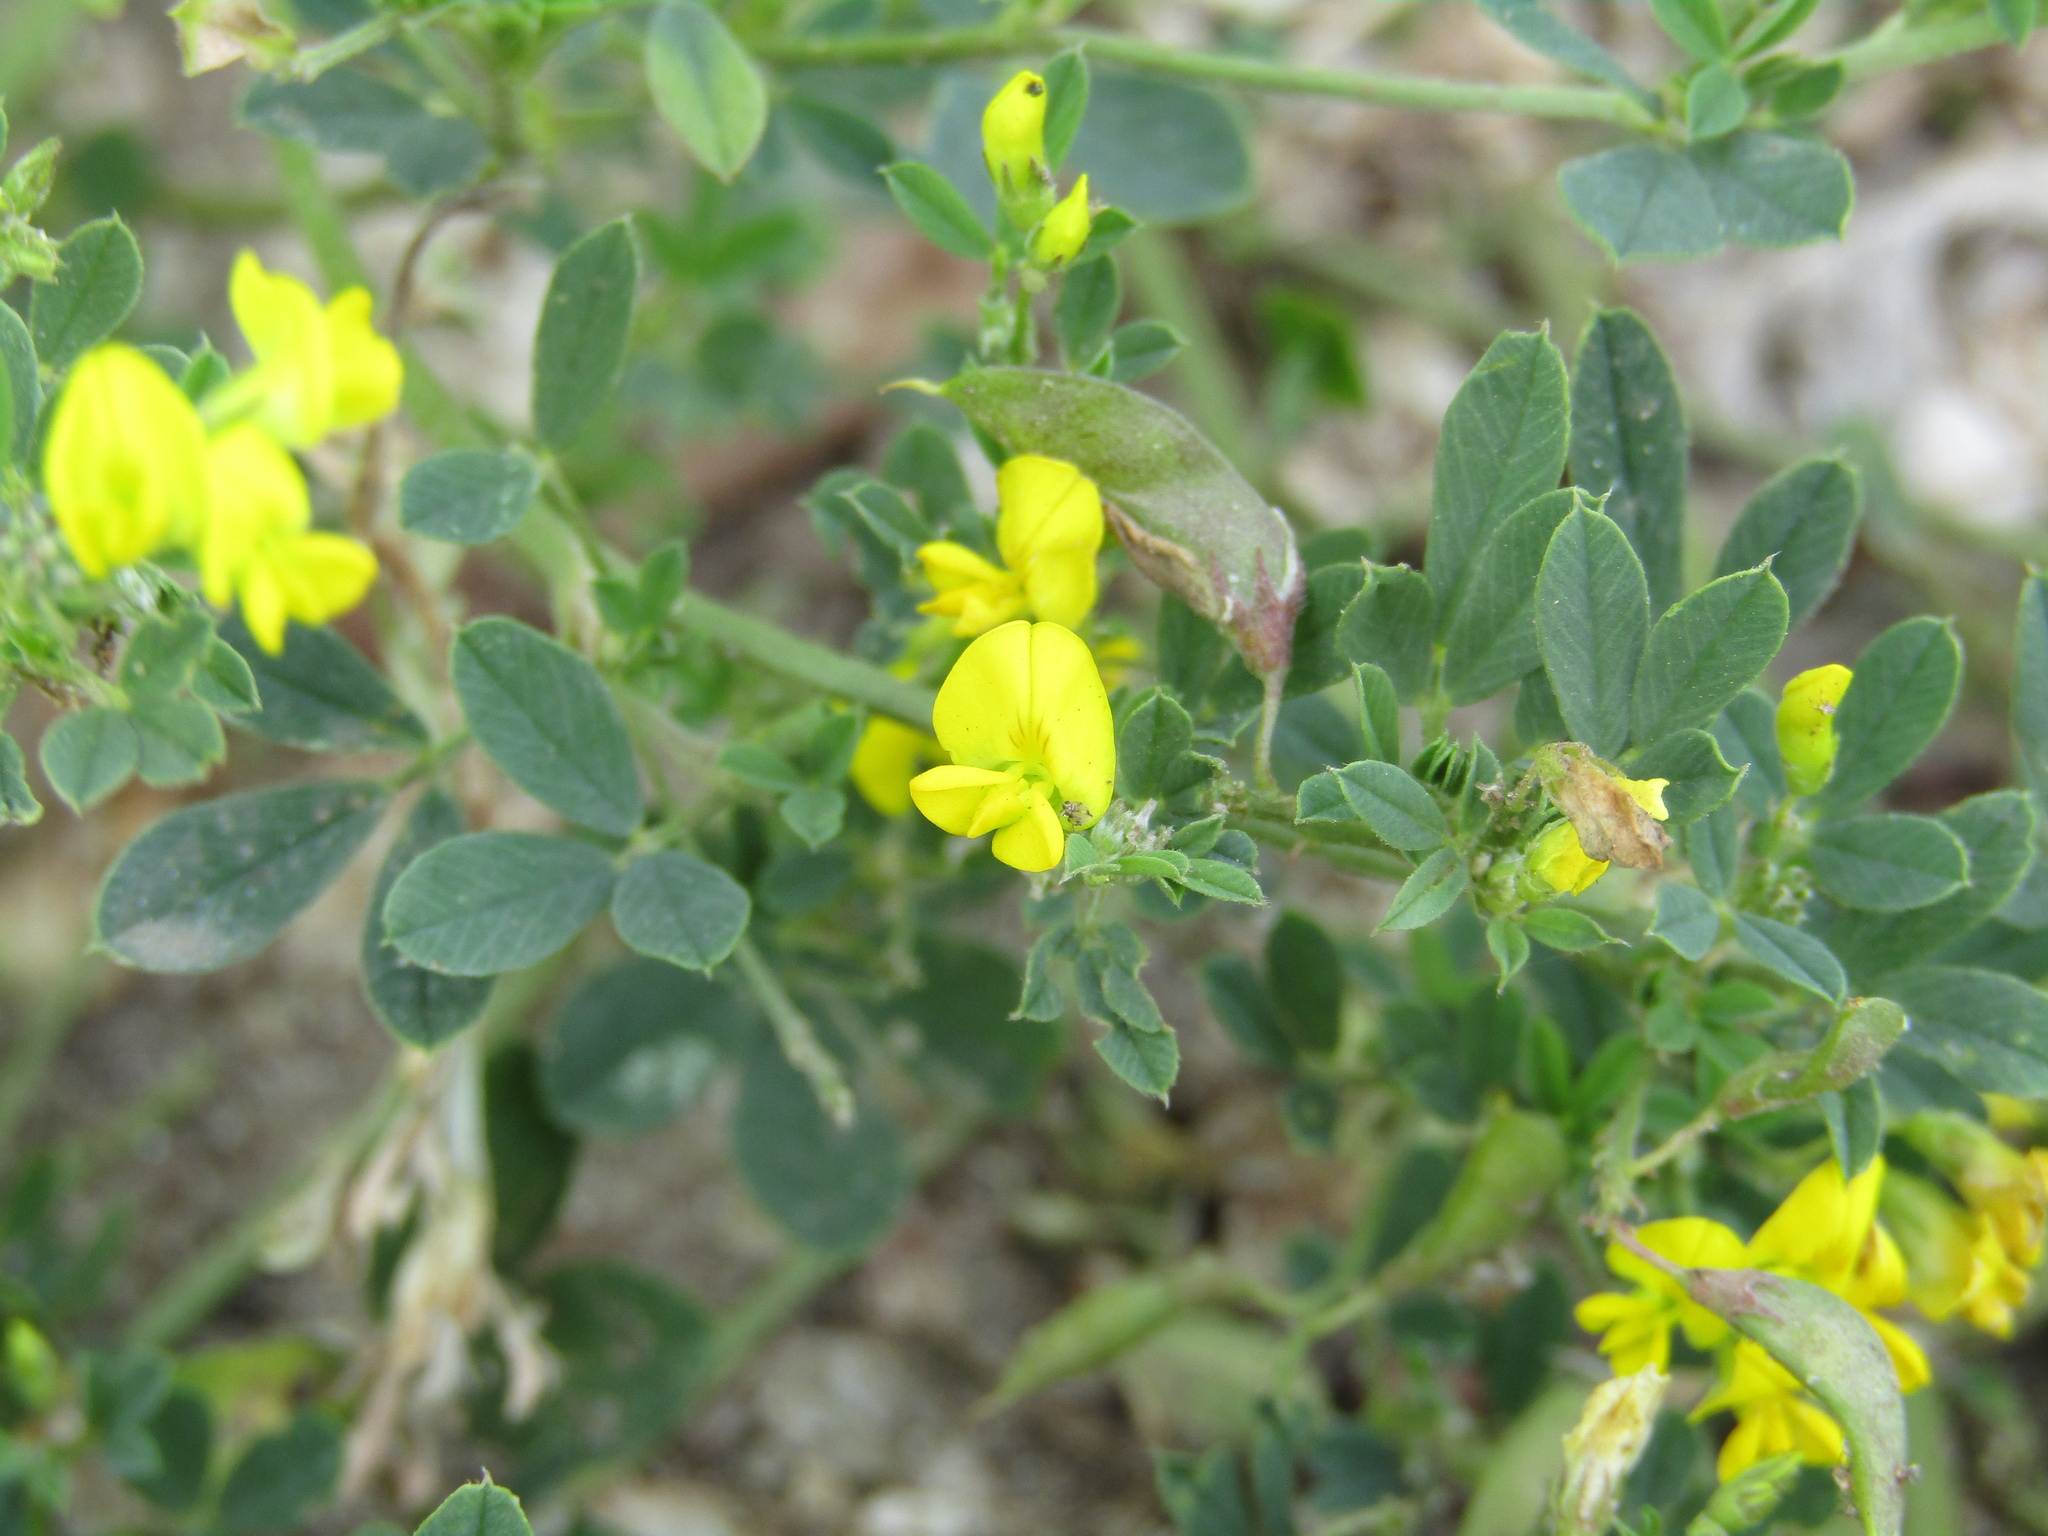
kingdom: Plantae
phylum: Tracheophyta
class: Magnoliopsida
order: Fabales
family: Fabaceae
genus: Medicago
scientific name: Medicago falcata
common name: Sickle medick
